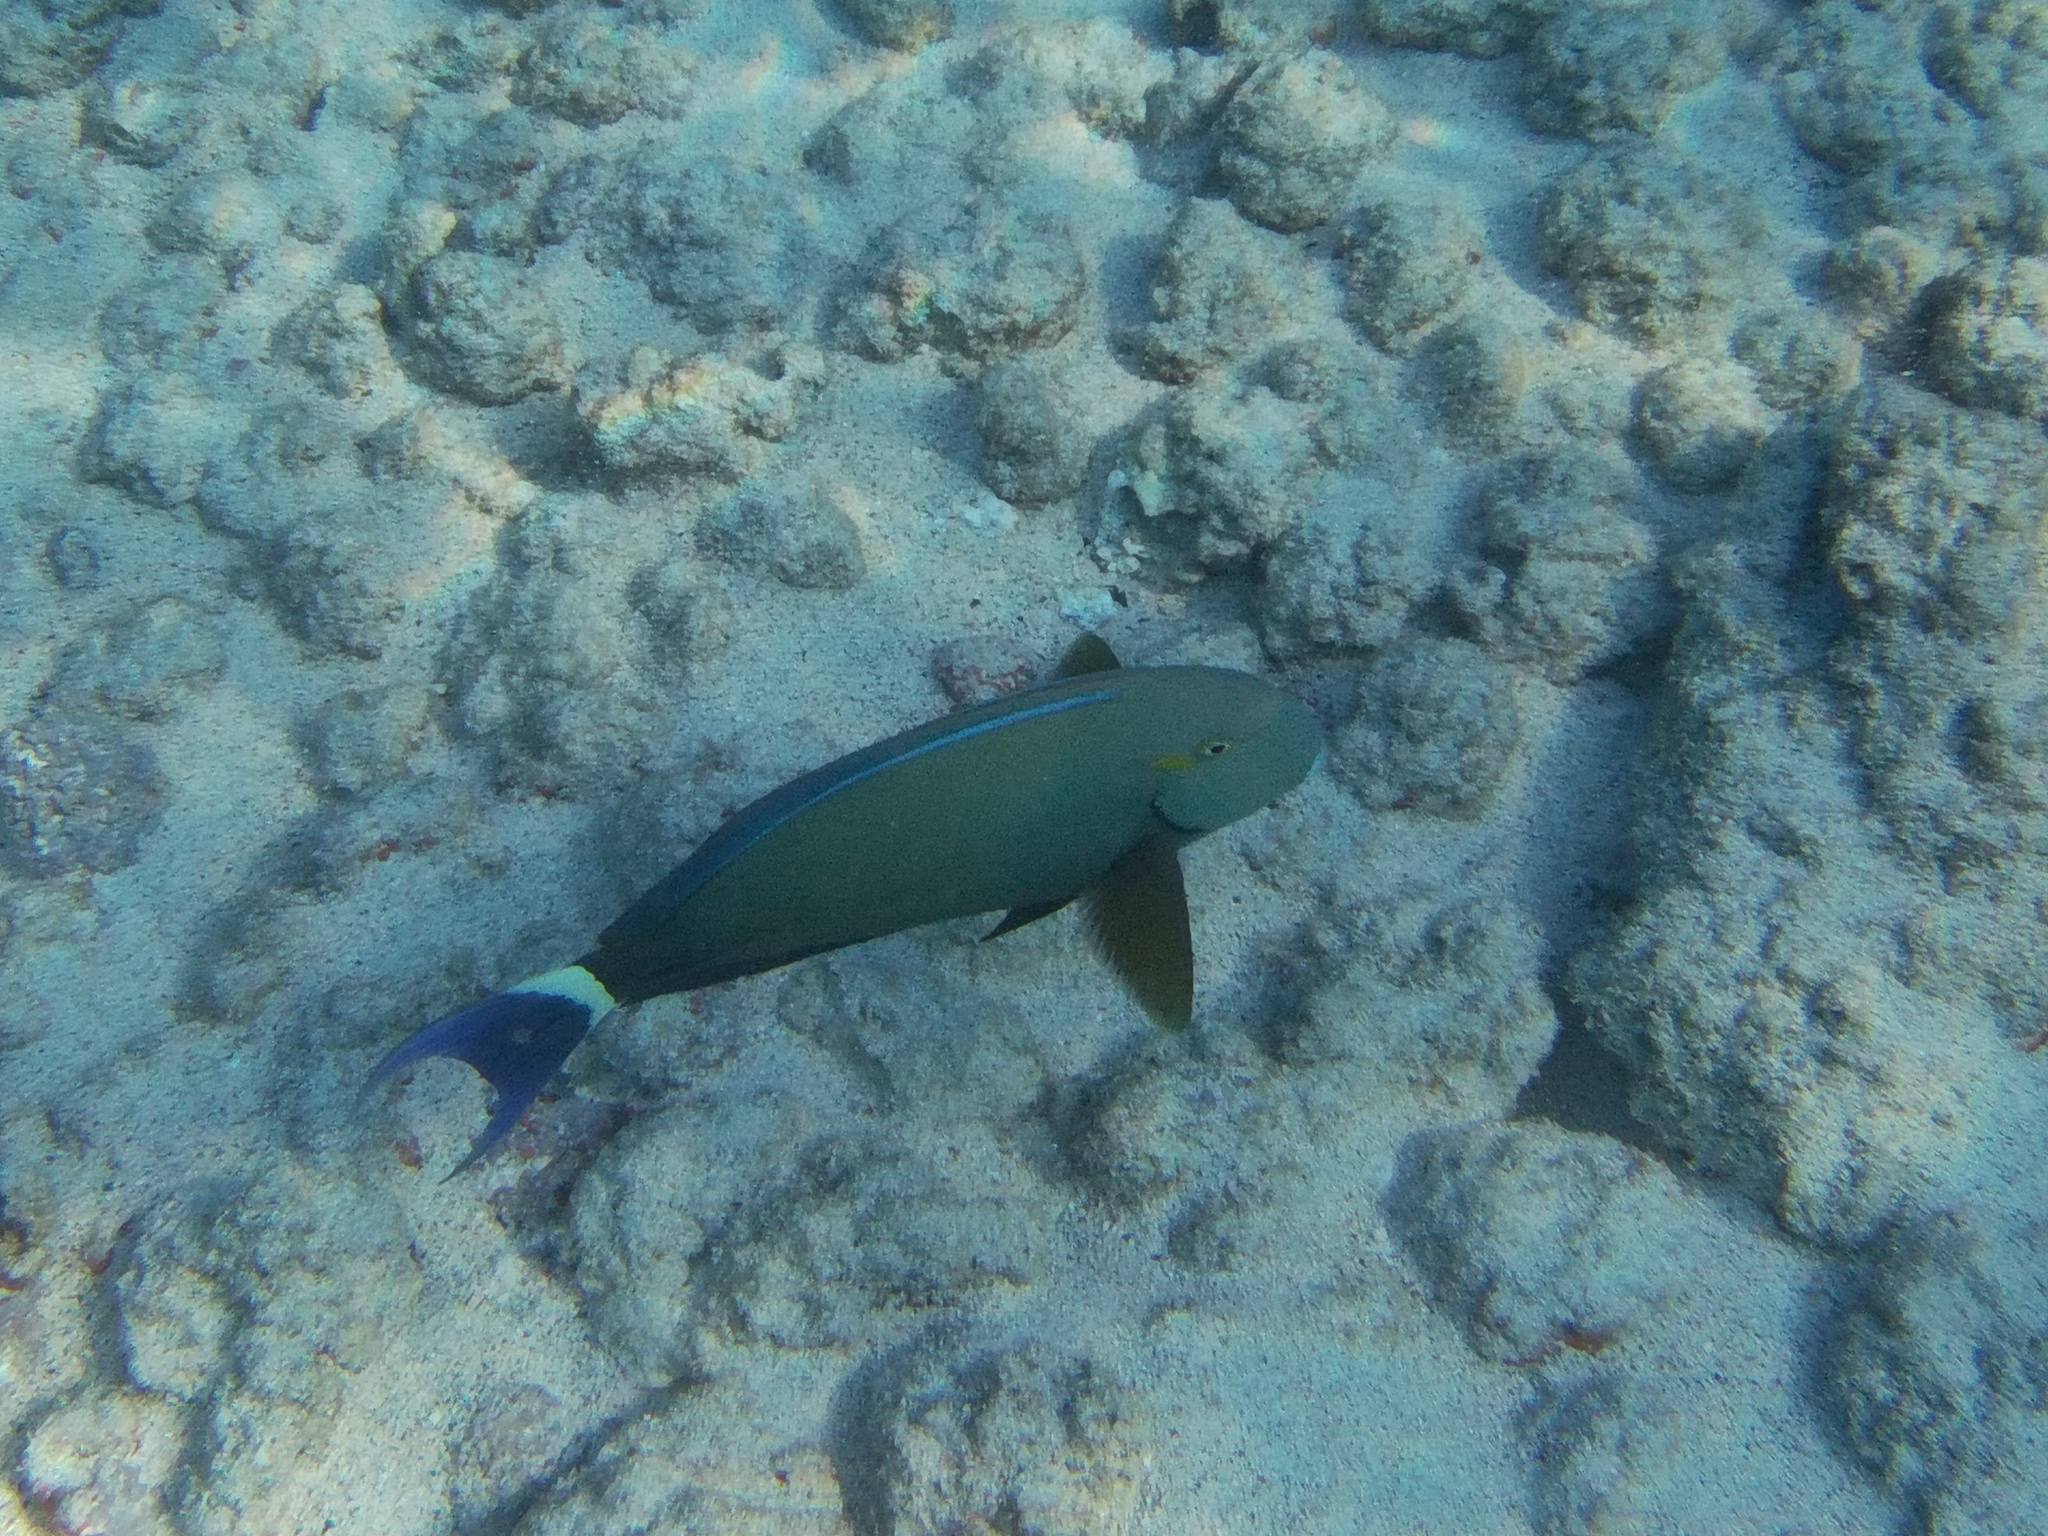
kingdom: Animalia
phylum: Chordata
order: Perciformes
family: Acanthuridae
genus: Acanthurus
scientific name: Acanthurus blochii
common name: Blue-banded pualu
